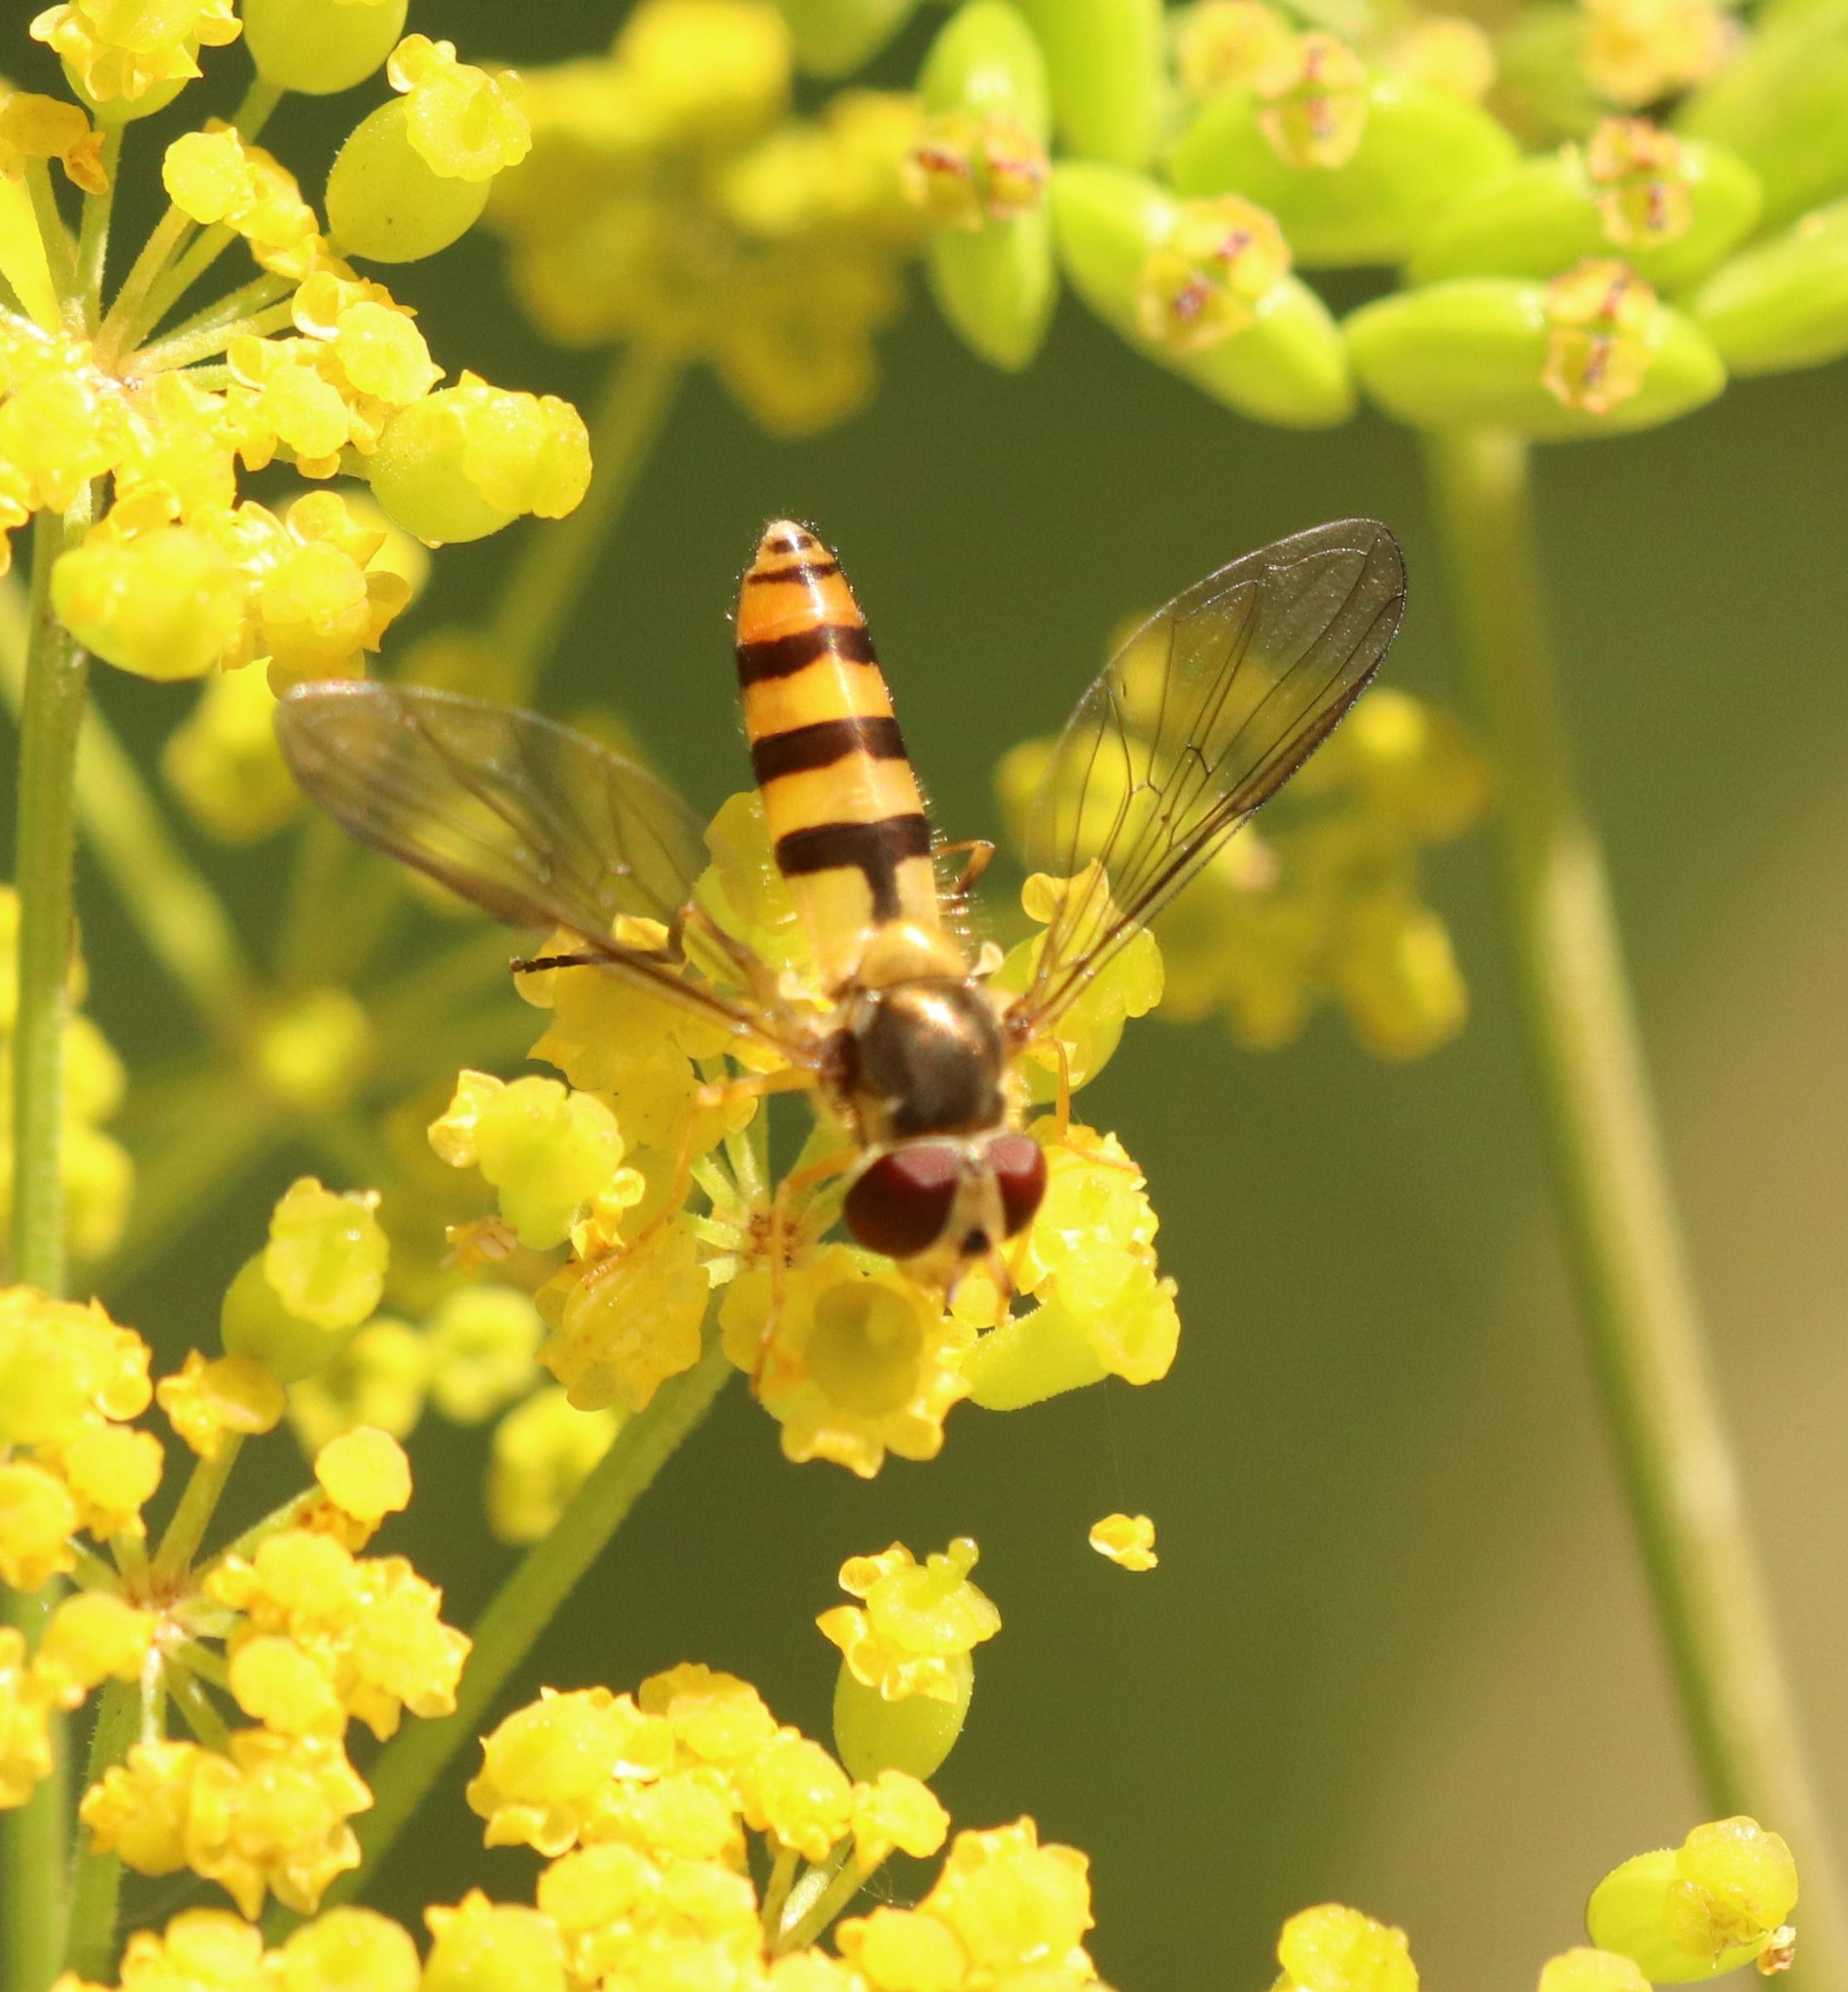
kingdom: Animalia
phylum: Arthropoda
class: Insecta
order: Diptera
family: Syrphidae
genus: Meliscaeva
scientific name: Meliscaeva cinctella
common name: American thintail fly
